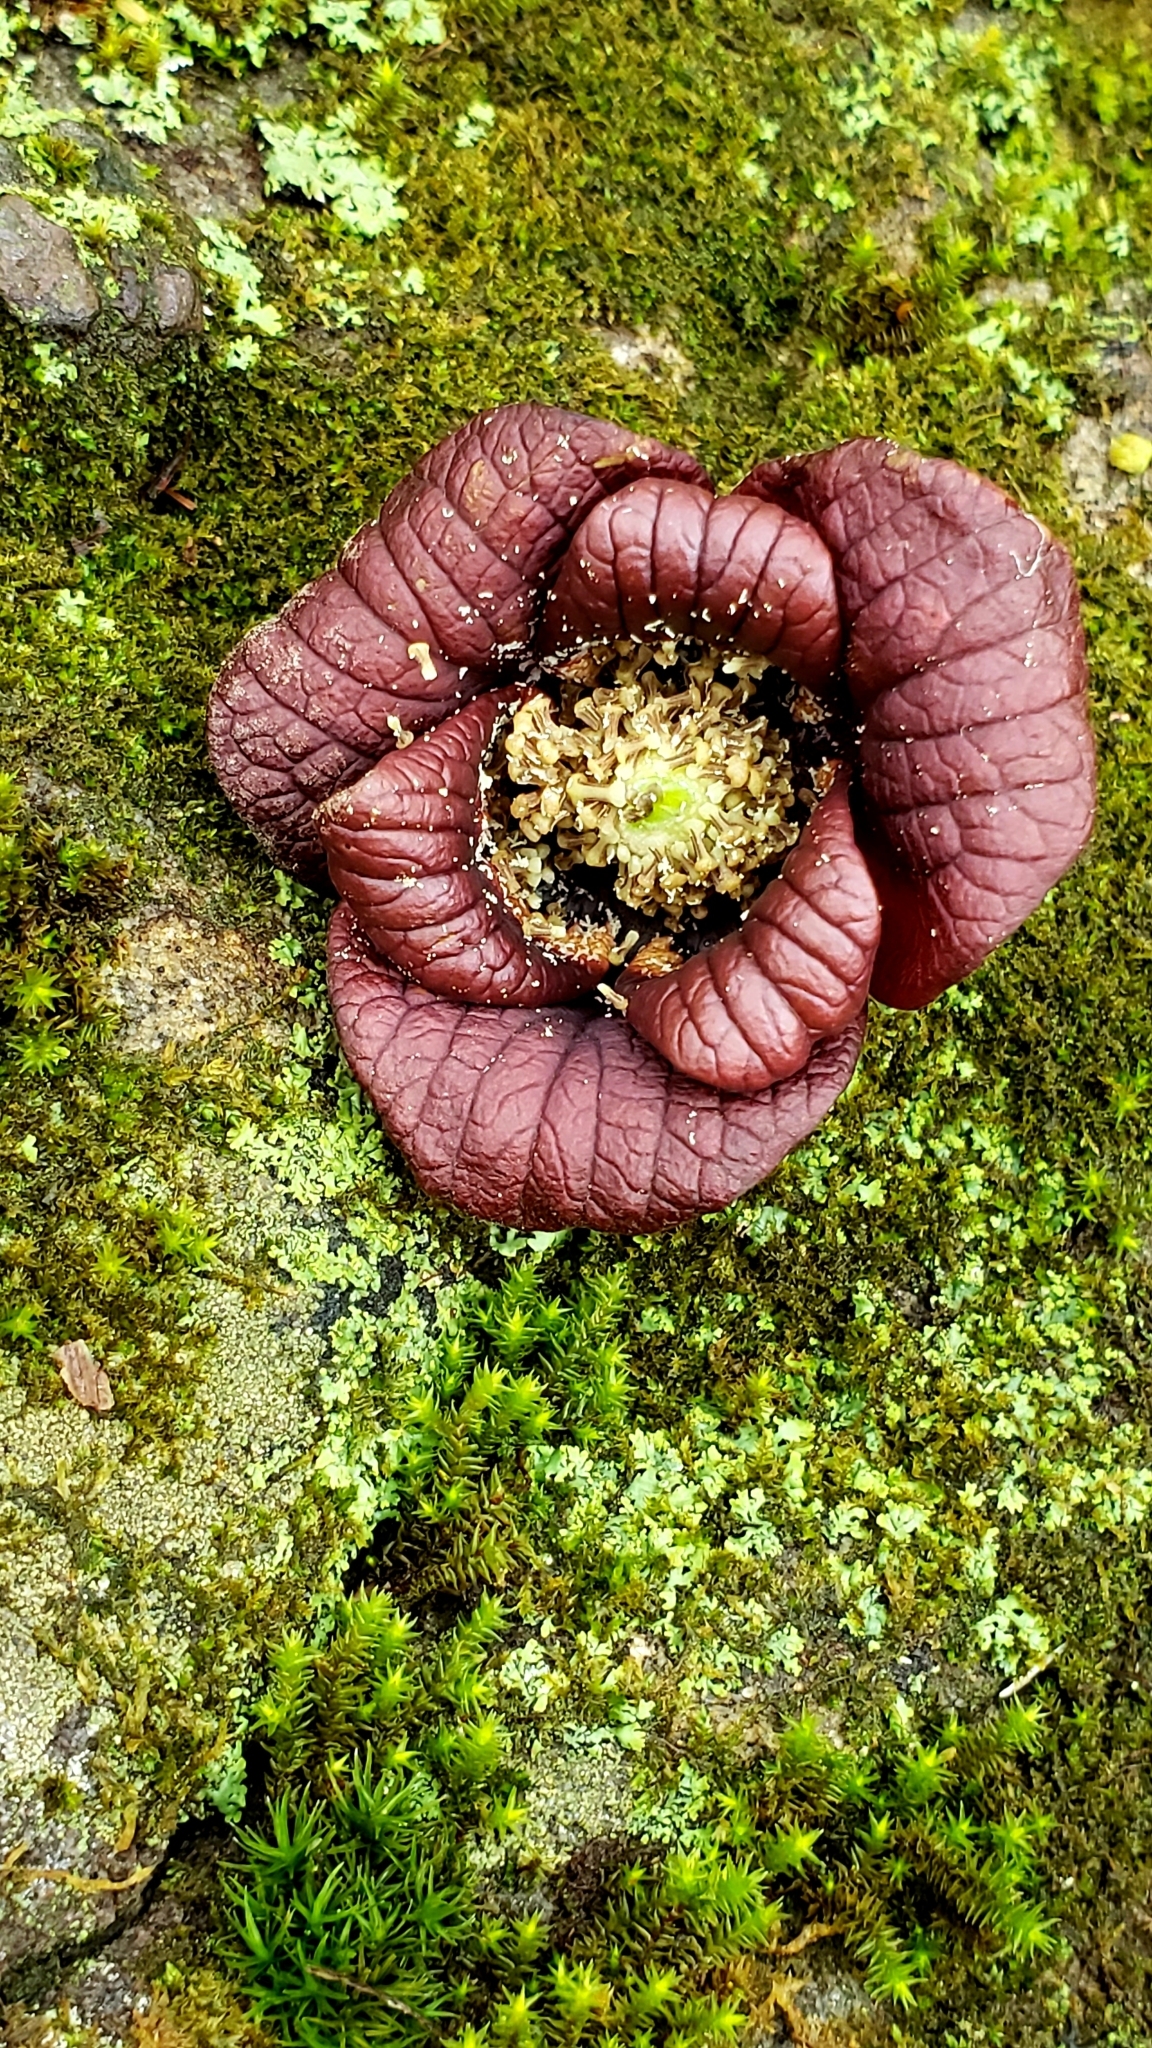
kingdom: Plantae
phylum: Tracheophyta
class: Magnoliopsida
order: Magnoliales
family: Annonaceae
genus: Asimina
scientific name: Asimina triloba
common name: Dog-banana
